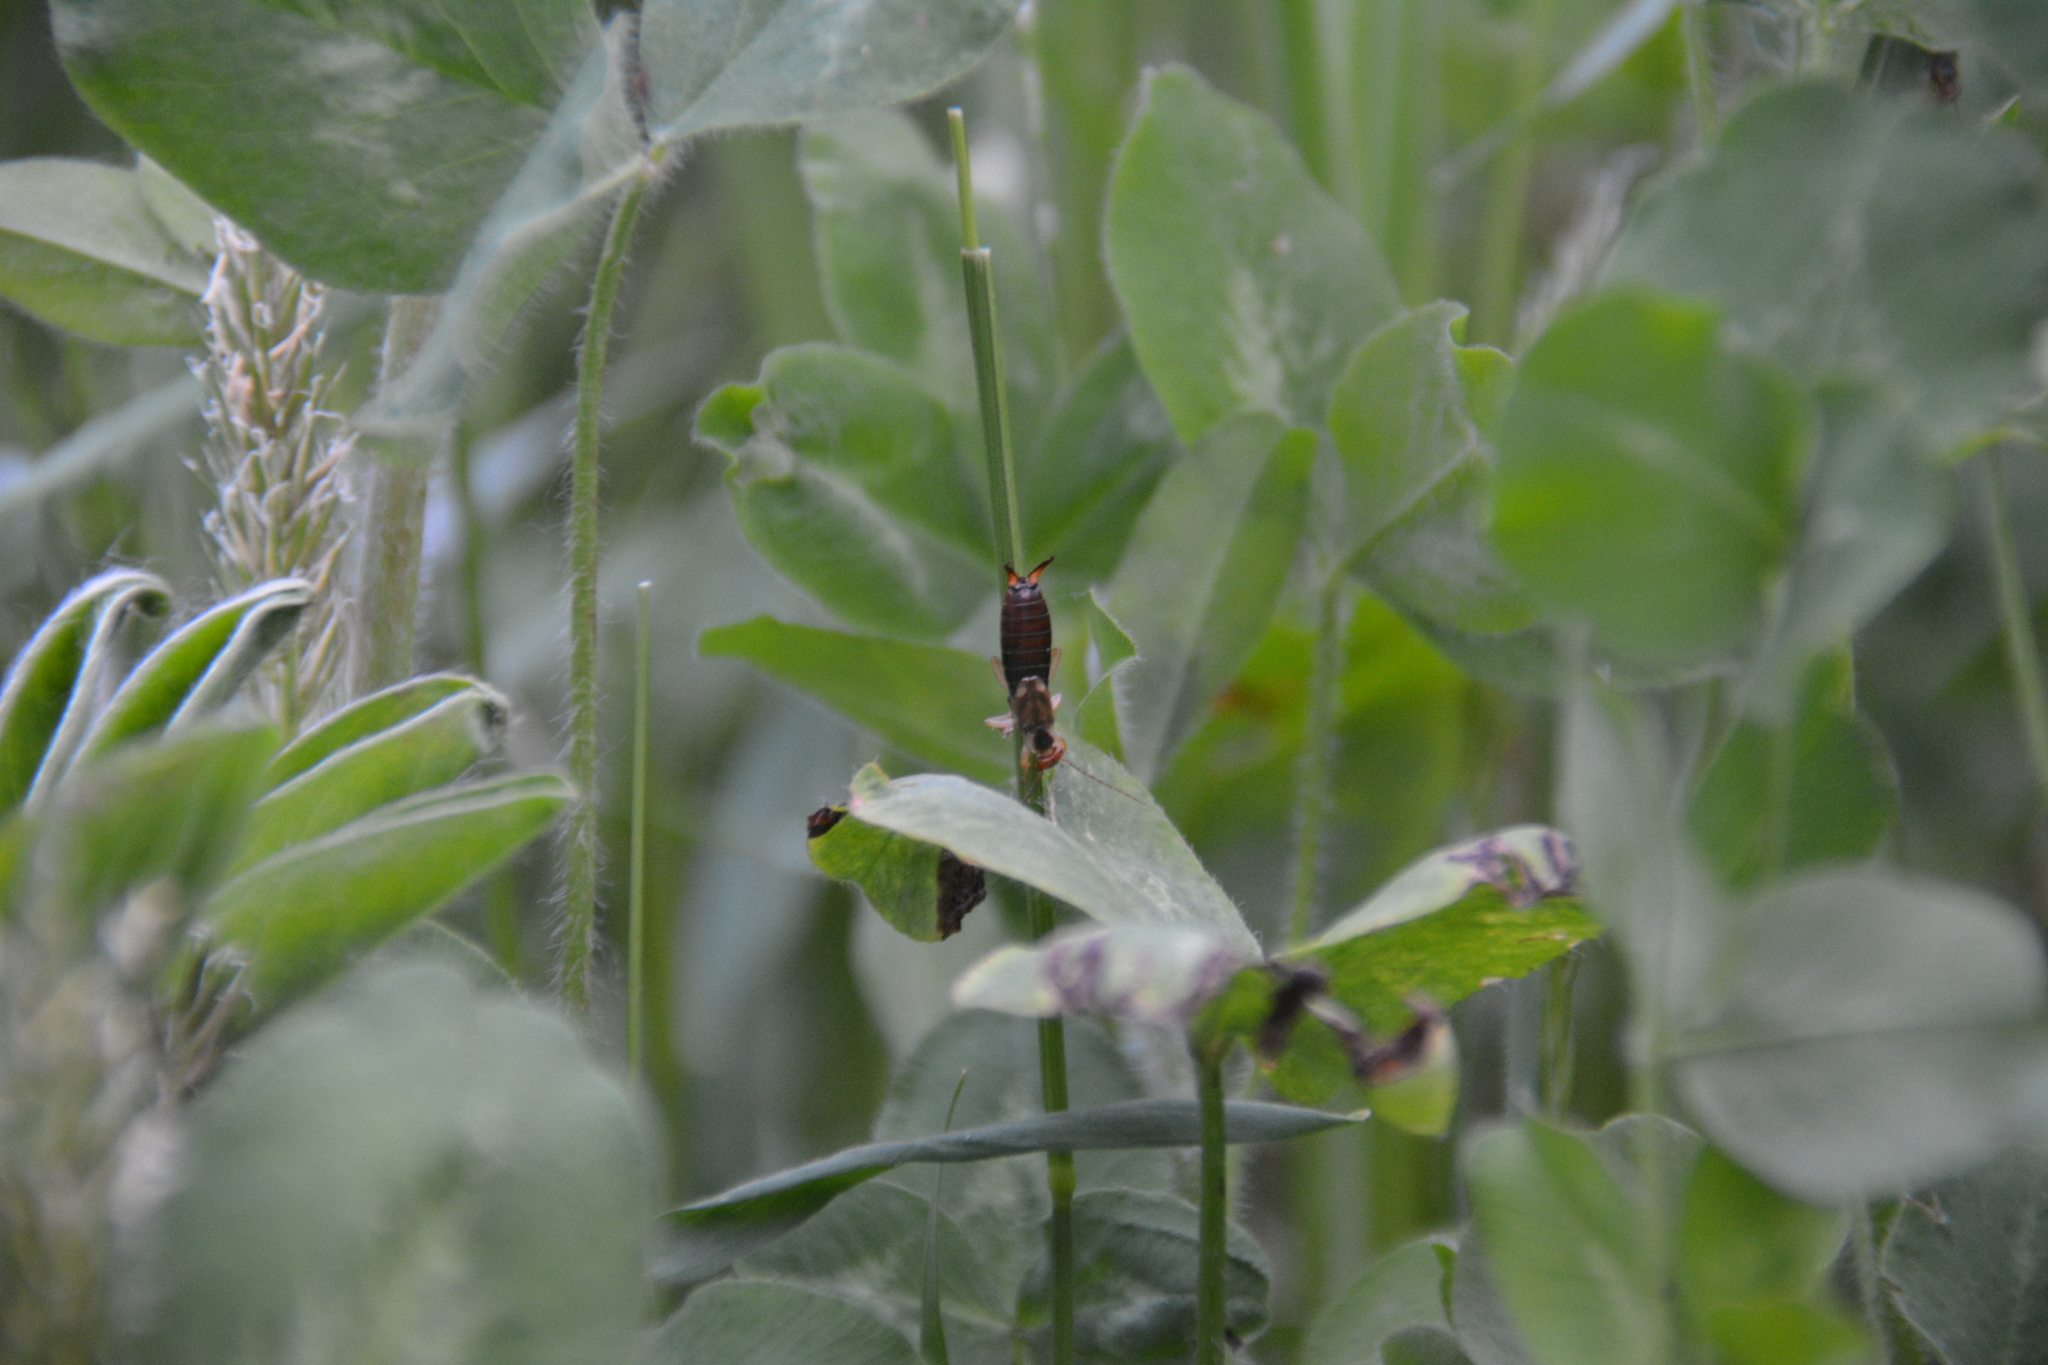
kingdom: Animalia
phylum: Arthropoda
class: Insecta
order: Dermaptera
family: Forficulidae
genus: Forficula
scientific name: Forficula
